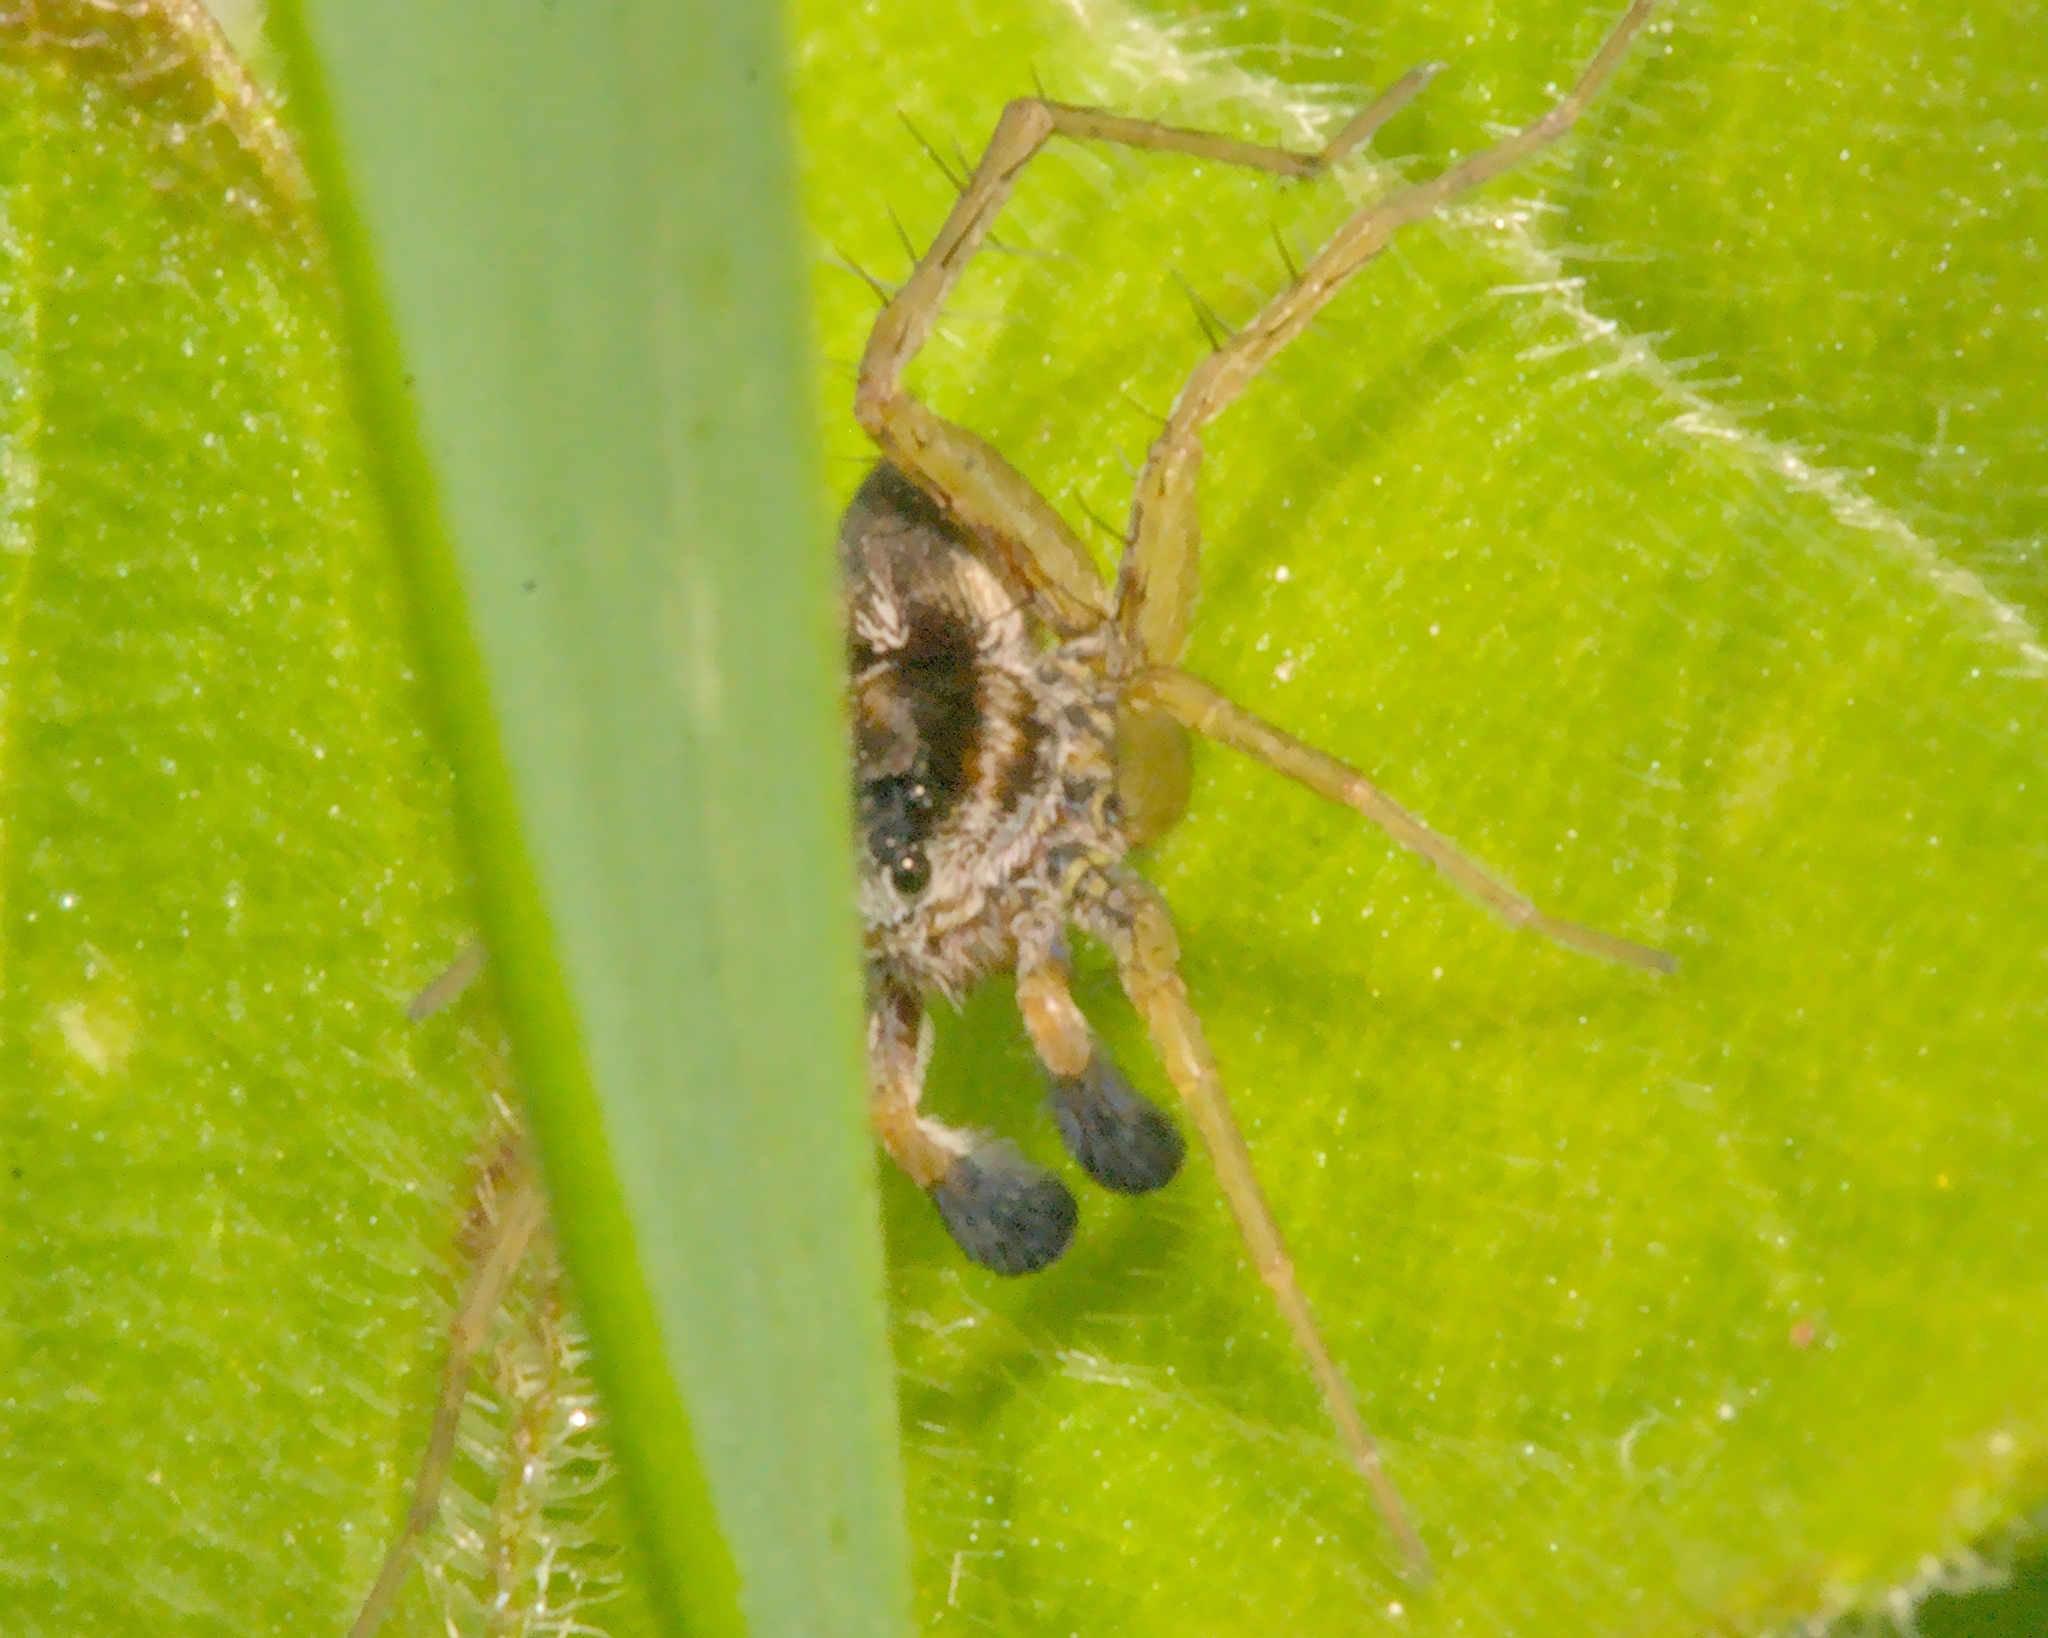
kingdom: Animalia
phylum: Arthropoda
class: Arachnida
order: Araneae
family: Lycosidae
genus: Pardosa
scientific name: Pardosa nigriceps
